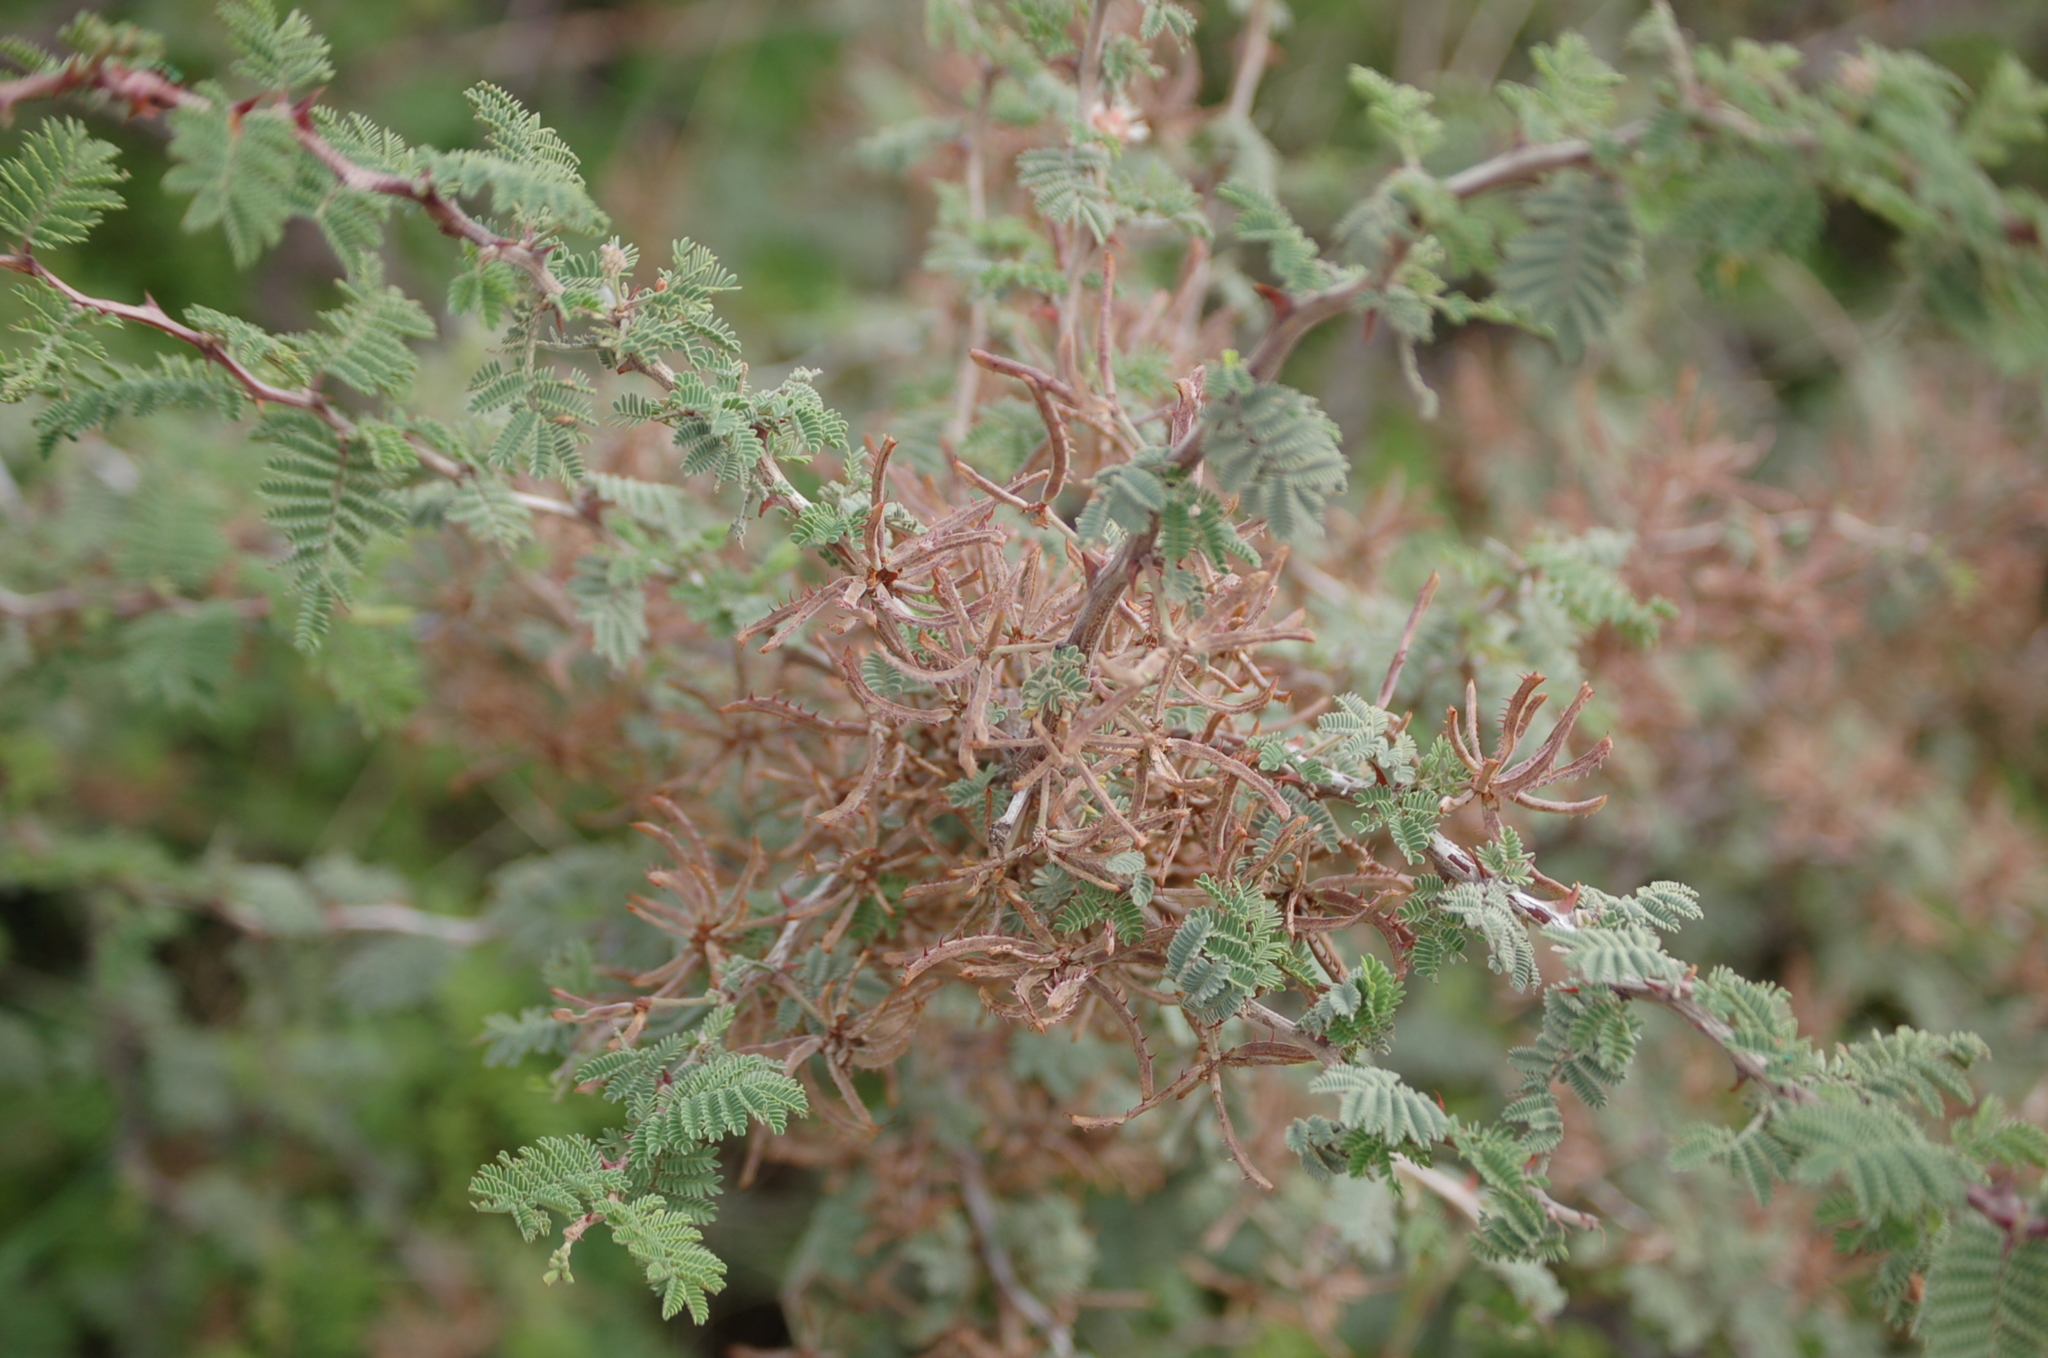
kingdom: Plantae
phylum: Tracheophyta
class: Magnoliopsida
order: Fabales
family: Fabaceae
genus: Mimosa
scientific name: Mimosa biuncifera
